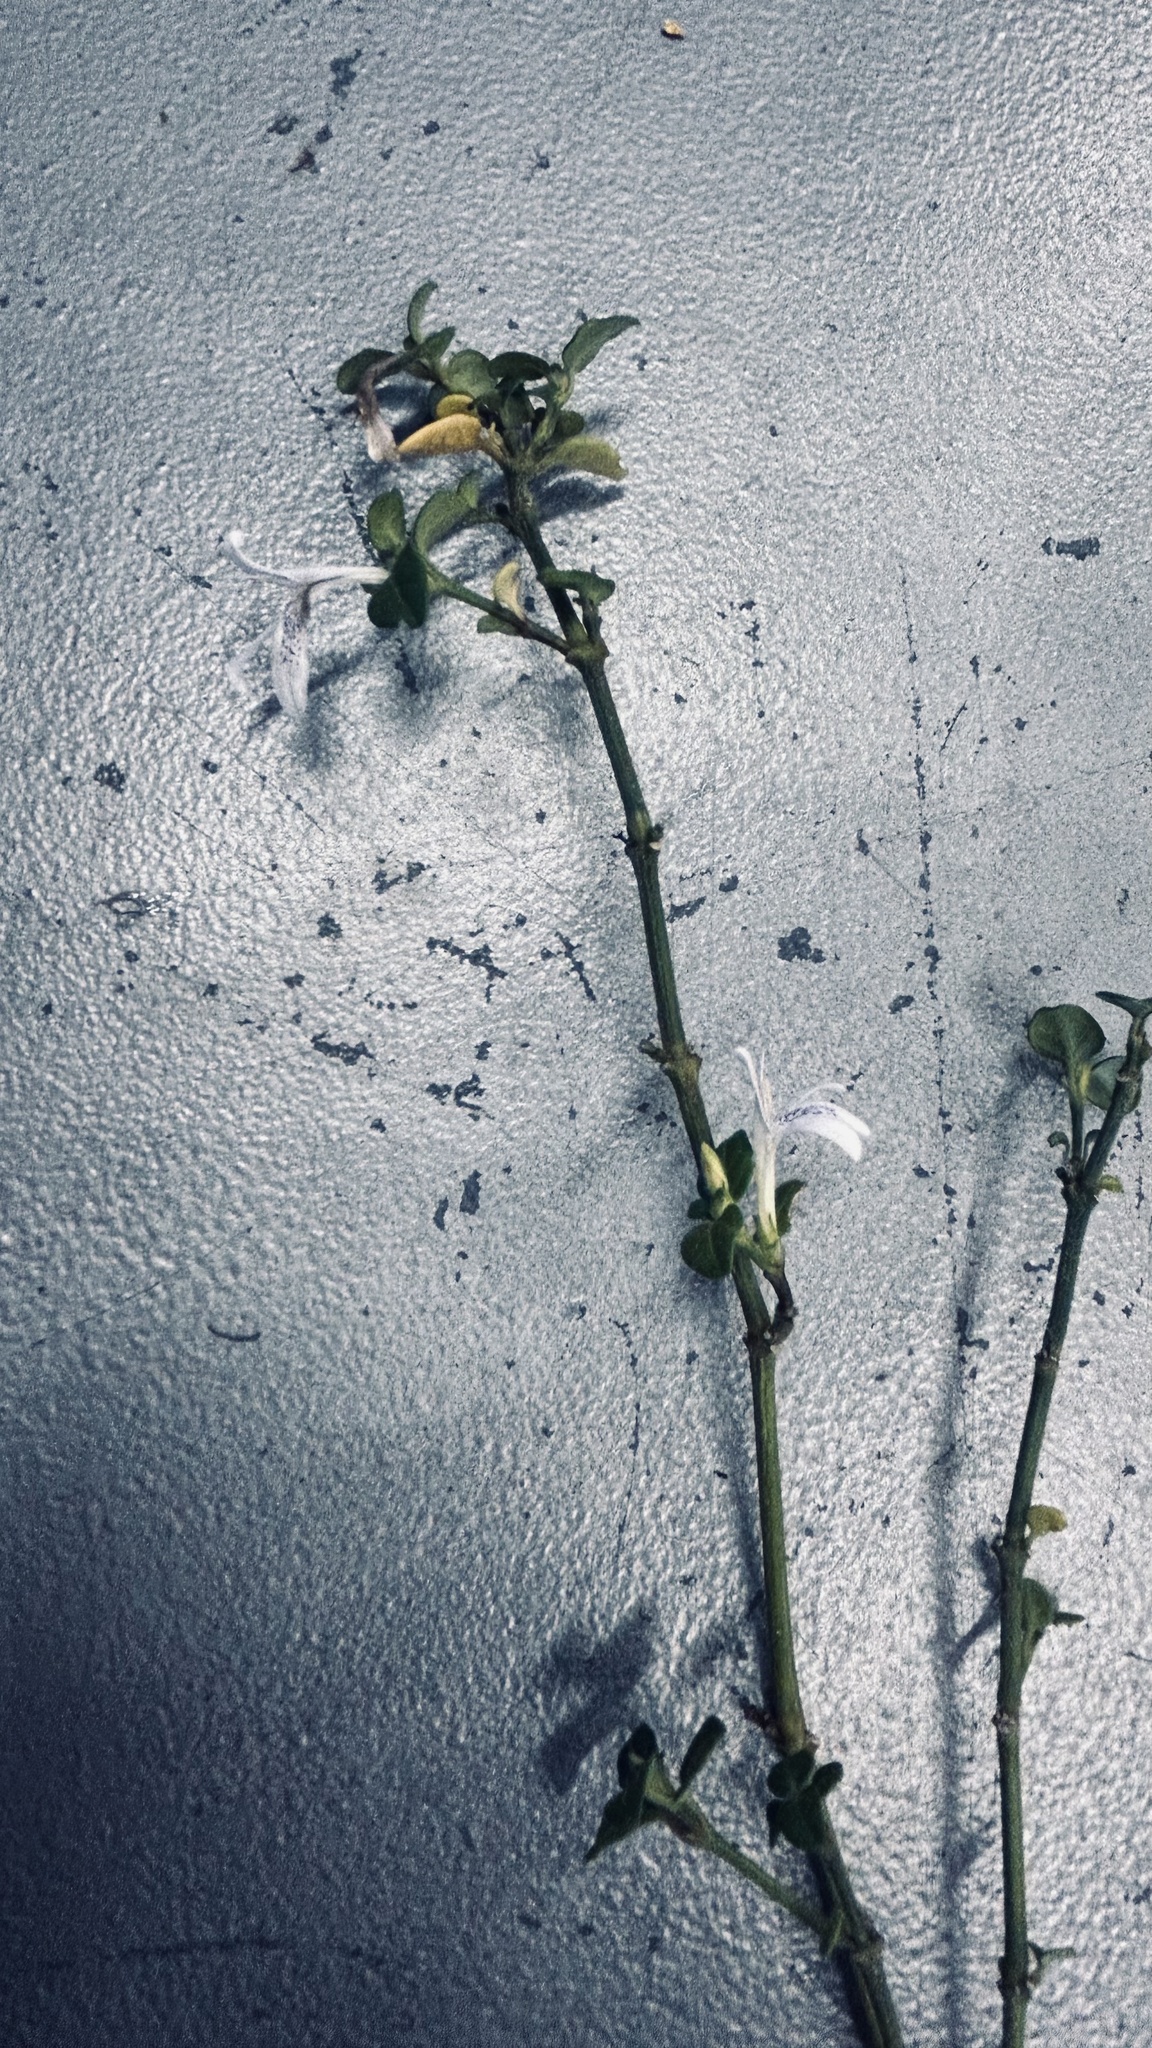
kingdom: Plantae
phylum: Tracheophyta
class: Magnoliopsida
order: Lamiales
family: Acanthaceae
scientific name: Acanthaceae
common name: Acanthaceae
